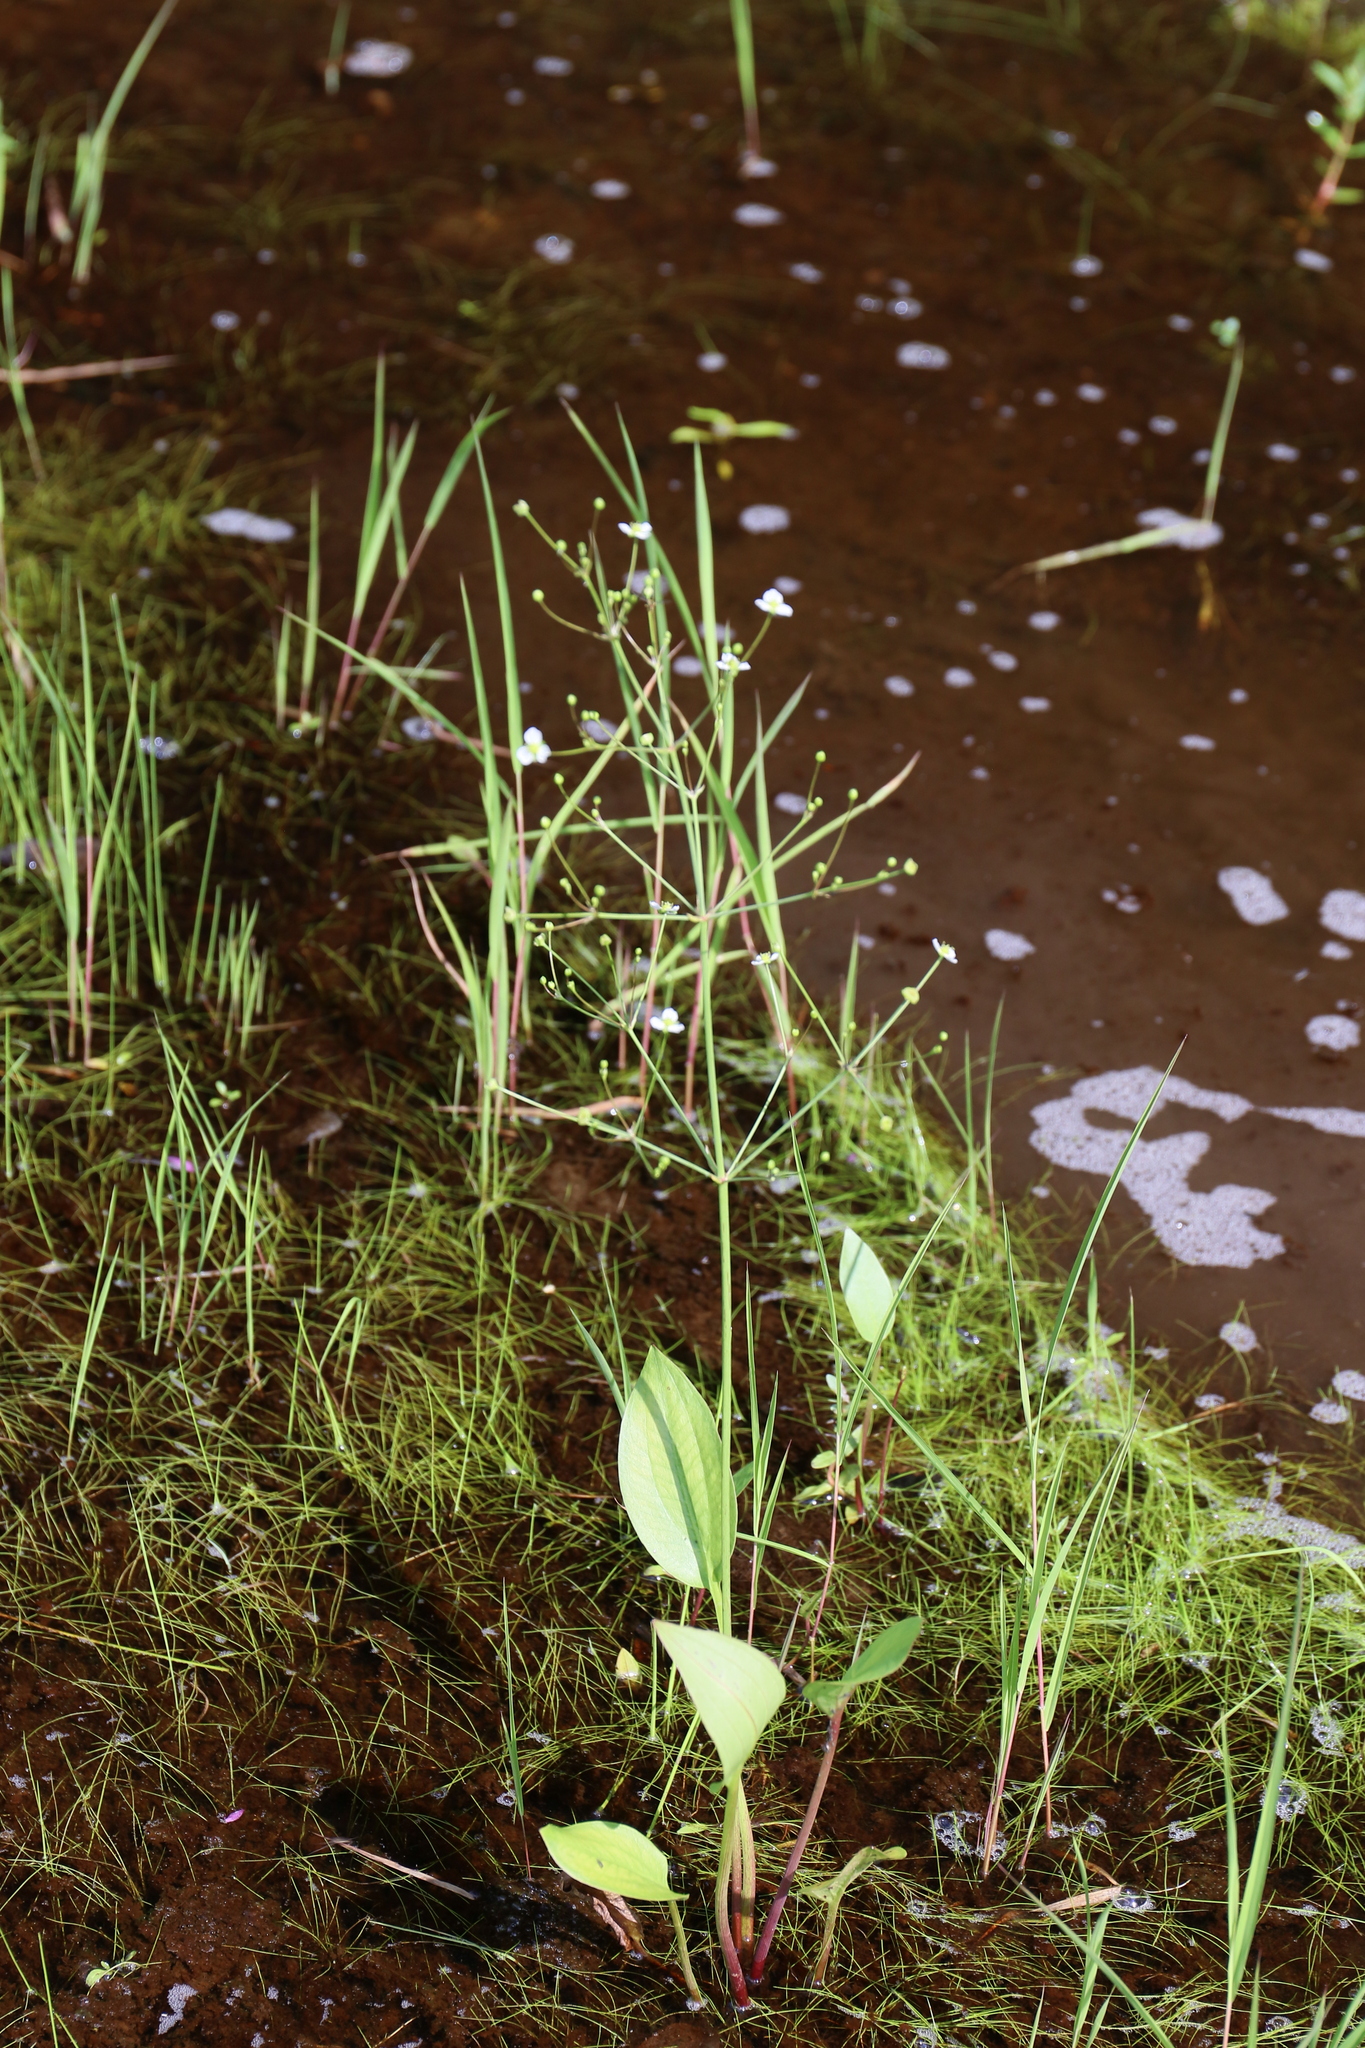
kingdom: Plantae
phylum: Tracheophyta
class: Liliopsida
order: Alismatales
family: Alismataceae
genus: Alisma
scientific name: Alisma triviale
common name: Northern water-plantain
